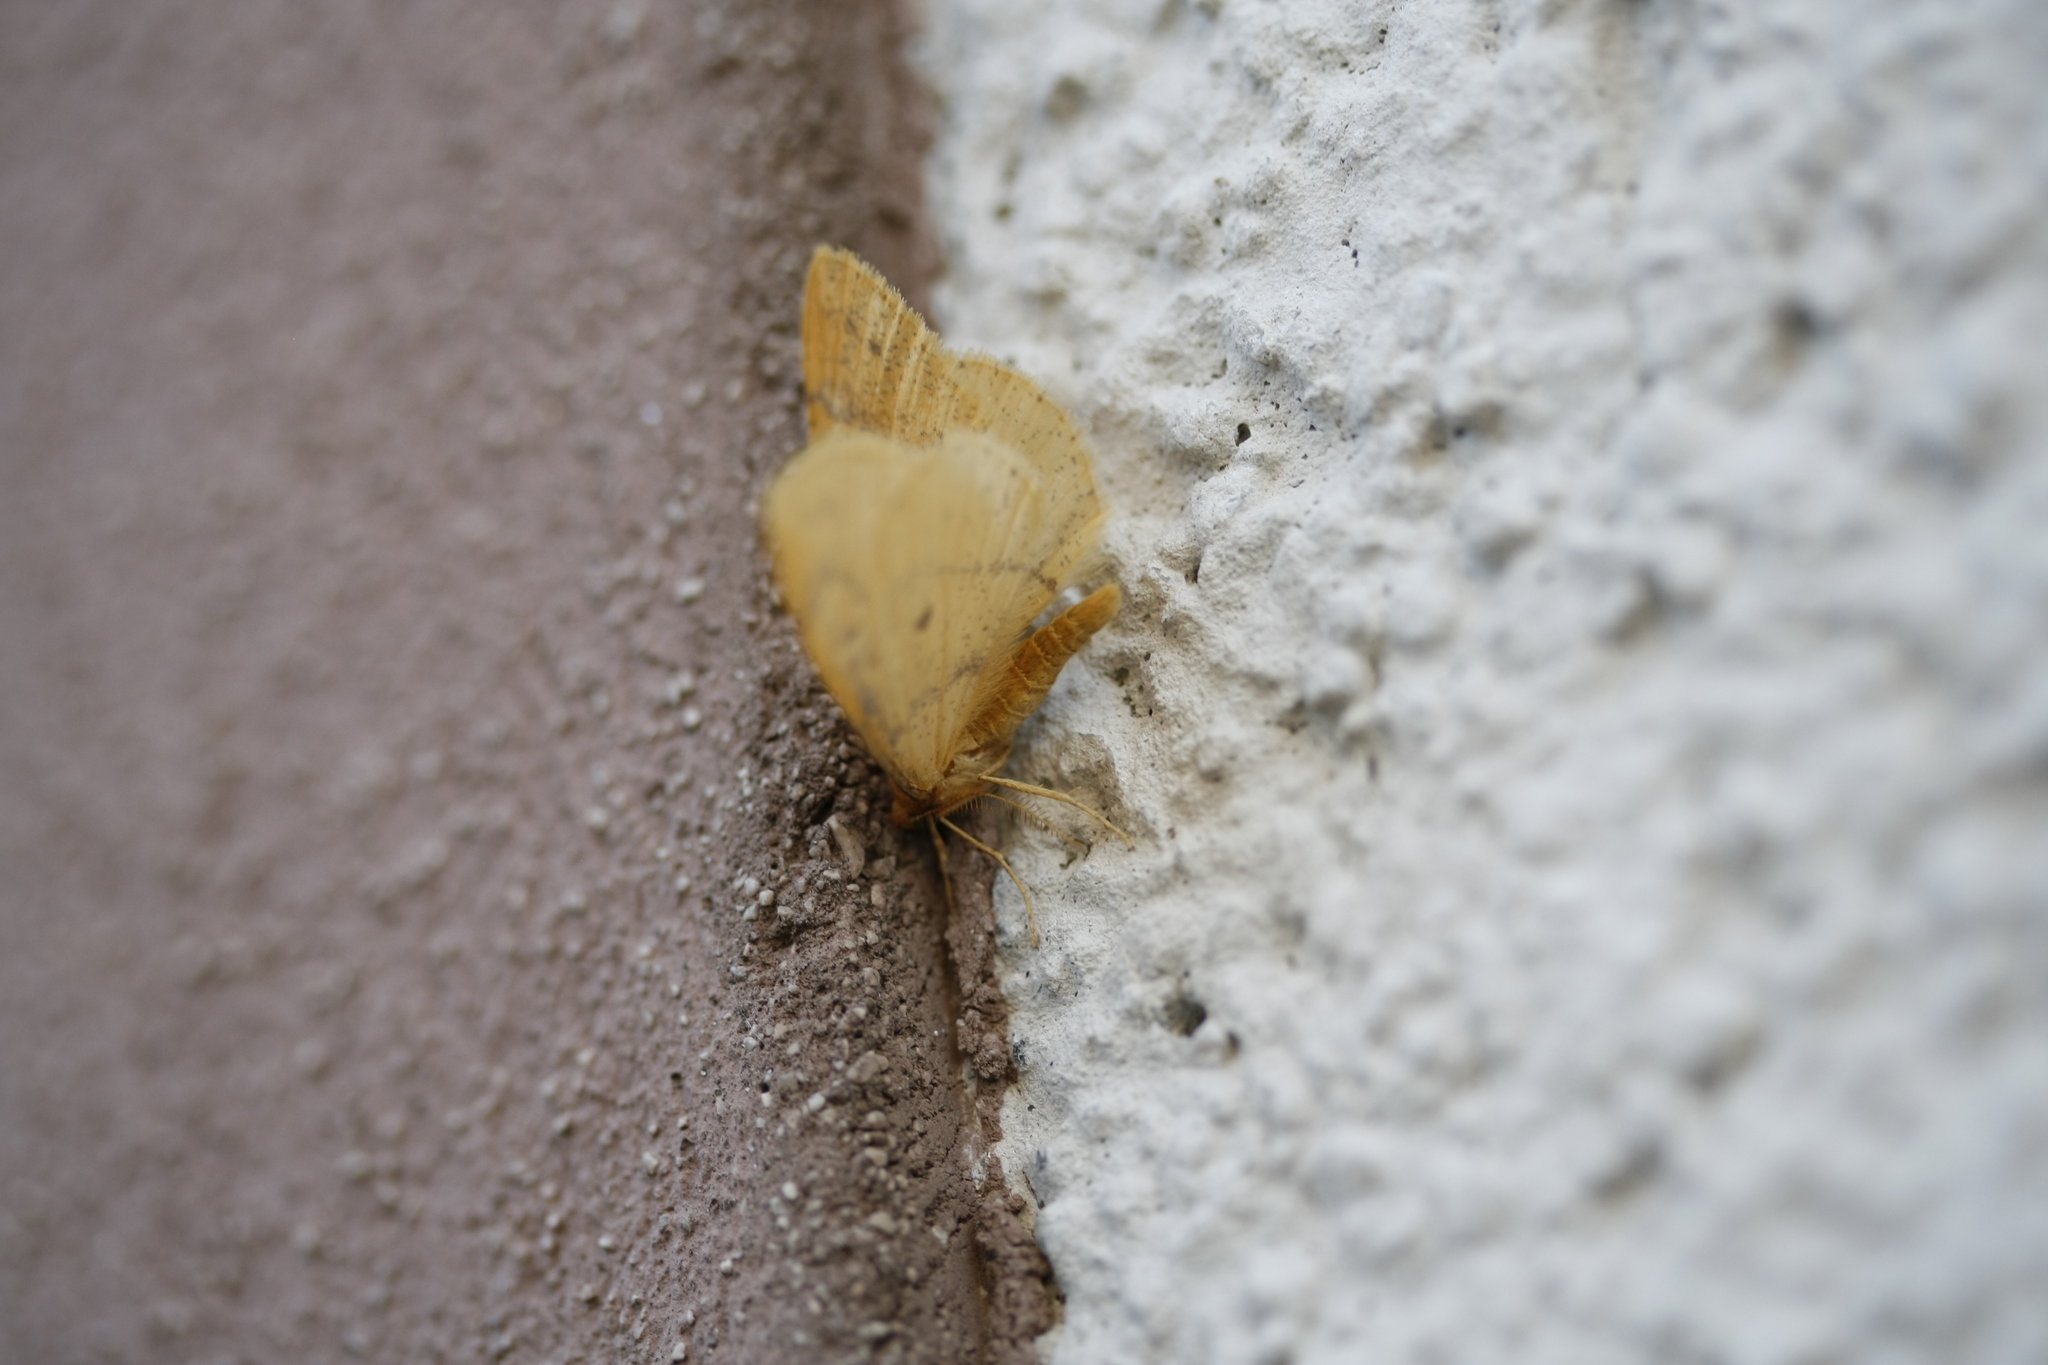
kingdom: Animalia
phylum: Arthropoda
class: Insecta
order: Lepidoptera
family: Geometridae
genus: Agriopis
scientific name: Agriopis aurantiaria
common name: Scarce umber
